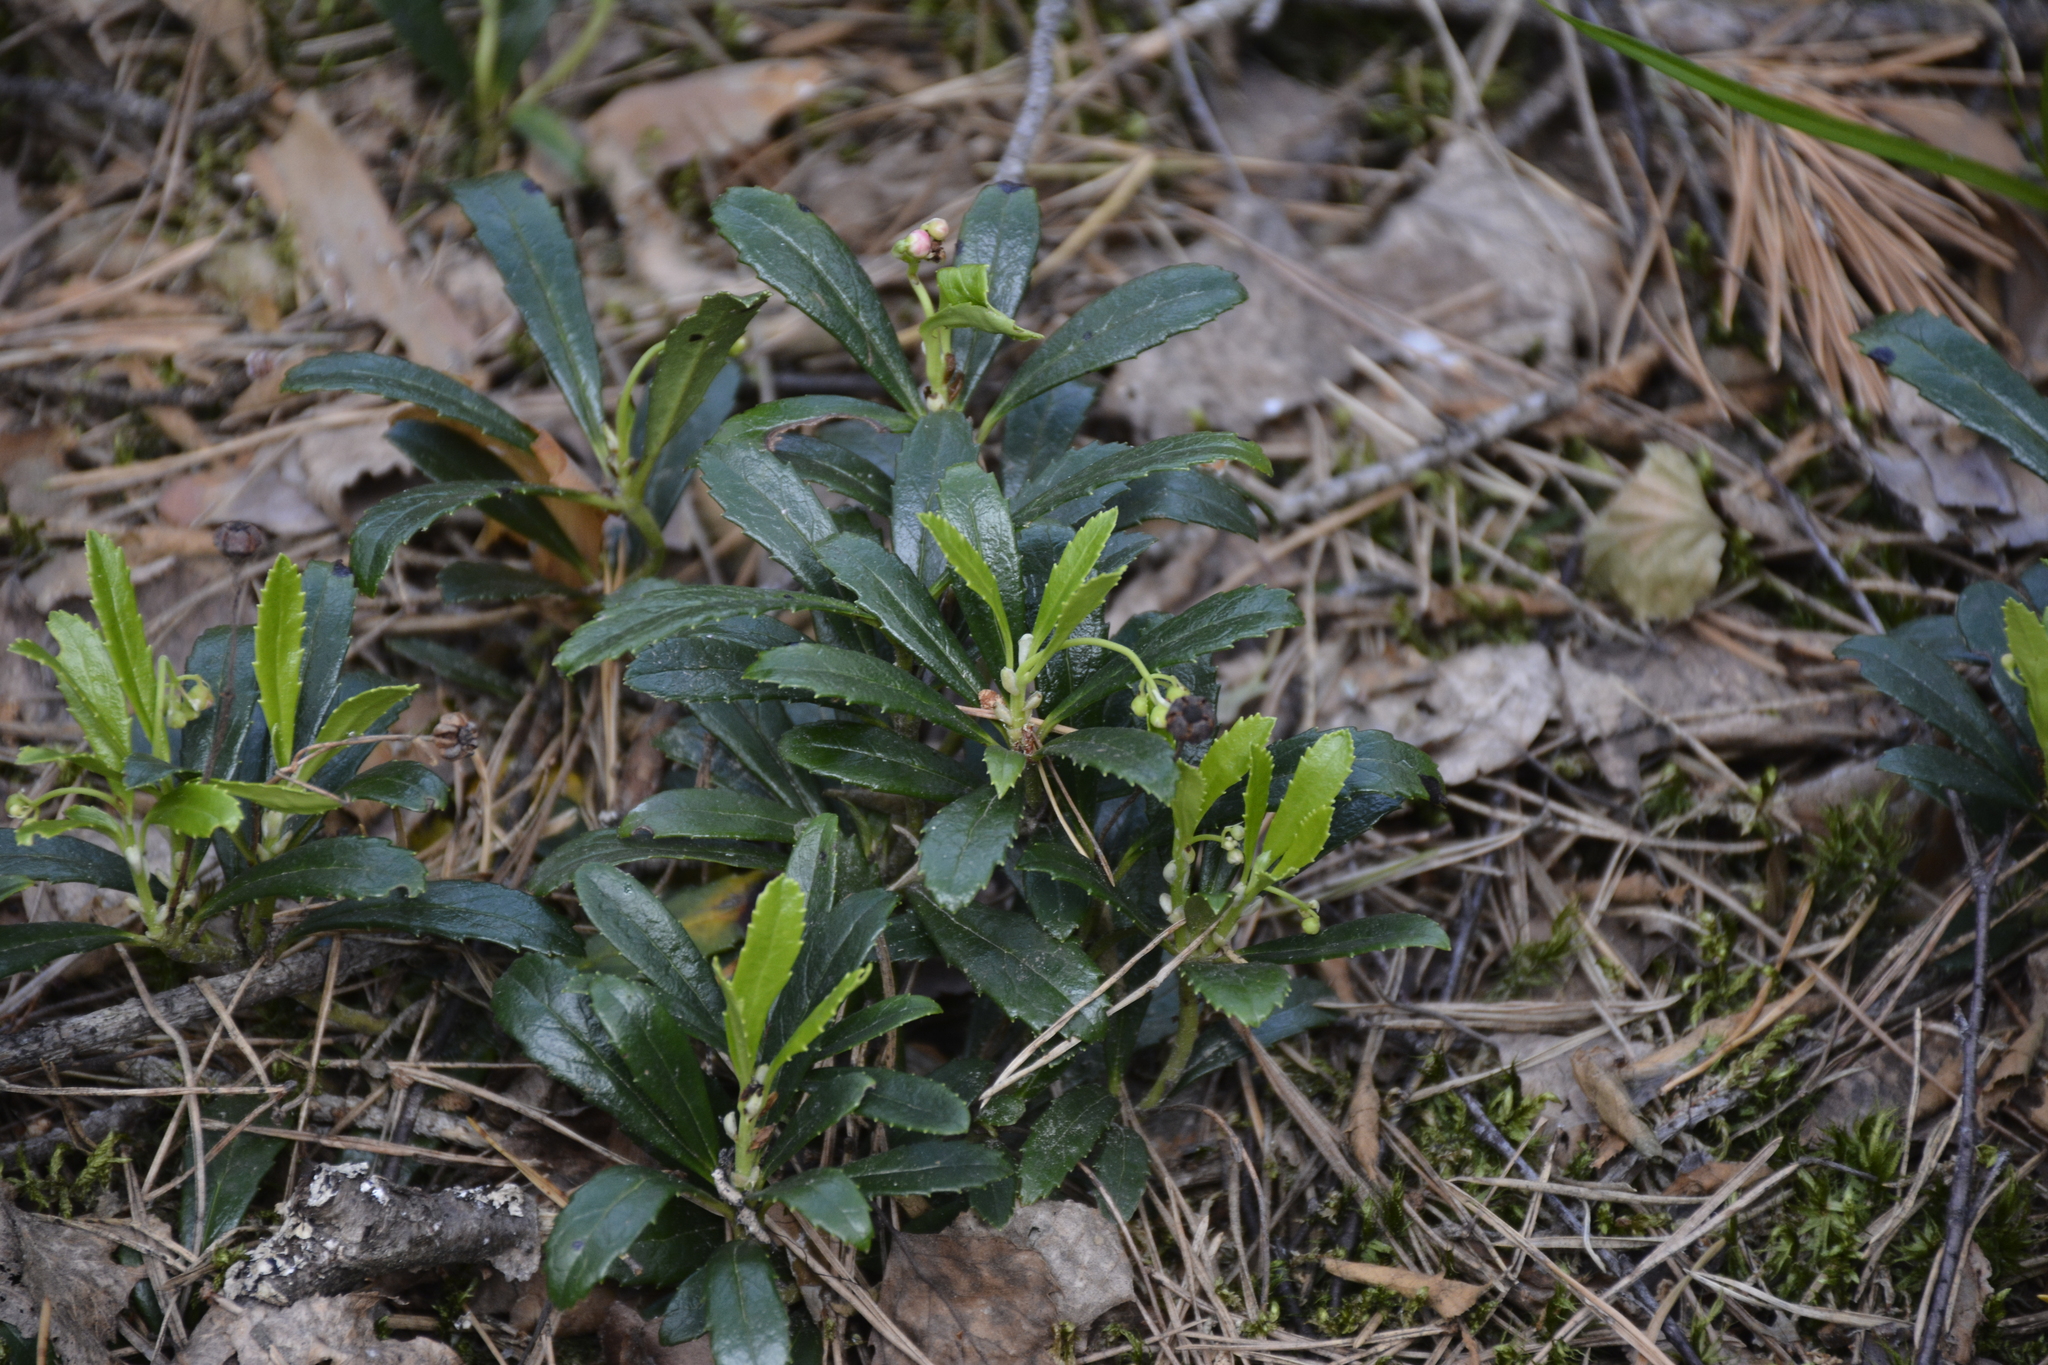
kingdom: Plantae
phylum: Tracheophyta
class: Magnoliopsida
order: Ericales
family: Ericaceae
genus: Chimaphila
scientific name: Chimaphila umbellata
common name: Pipsissewa
